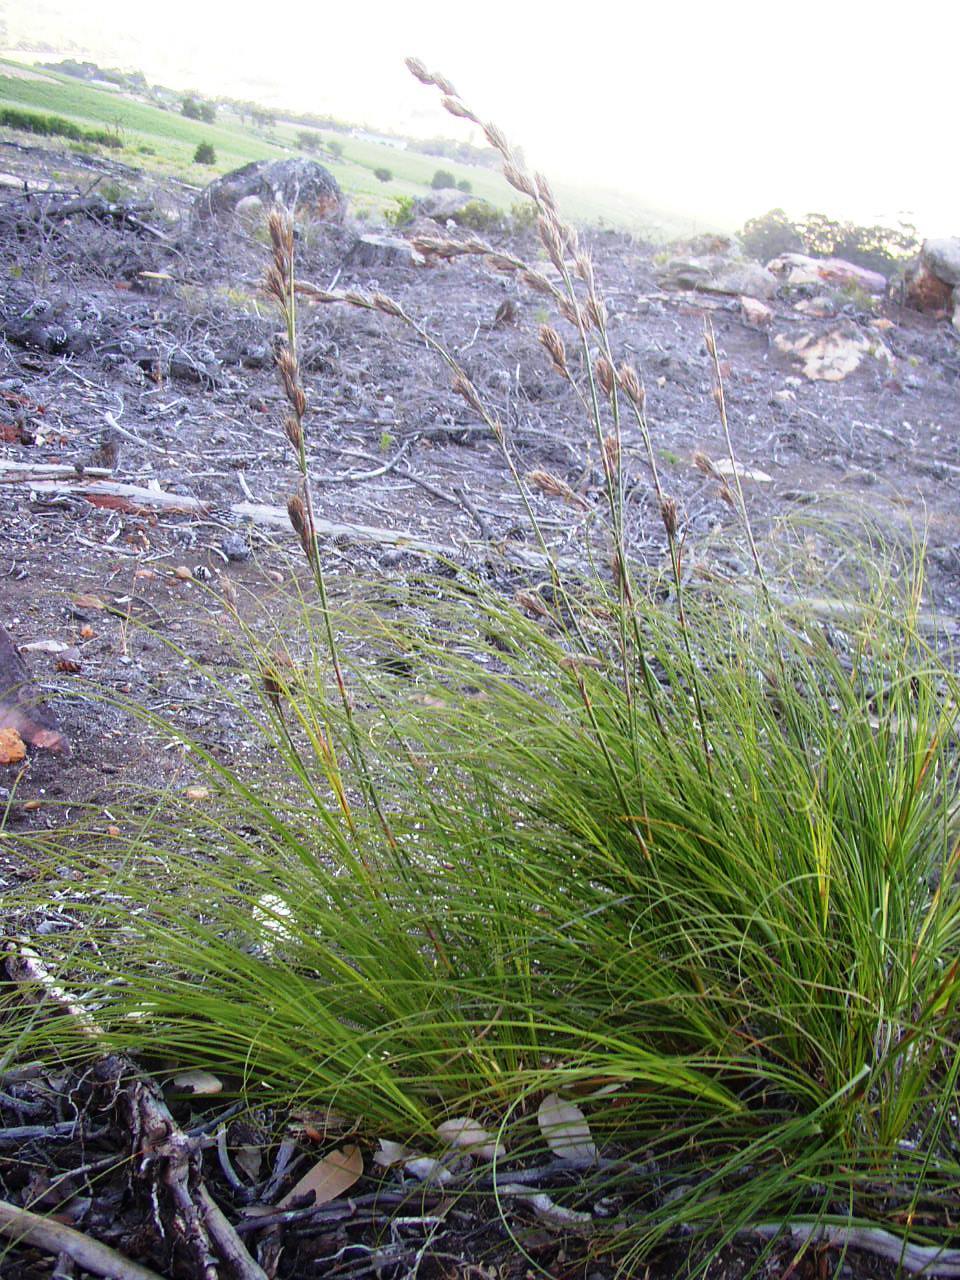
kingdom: Plantae
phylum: Tracheophyta
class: Liliopsida
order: Poales
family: Cyperaceae
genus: Tetraria
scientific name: Tetraria bromoides
